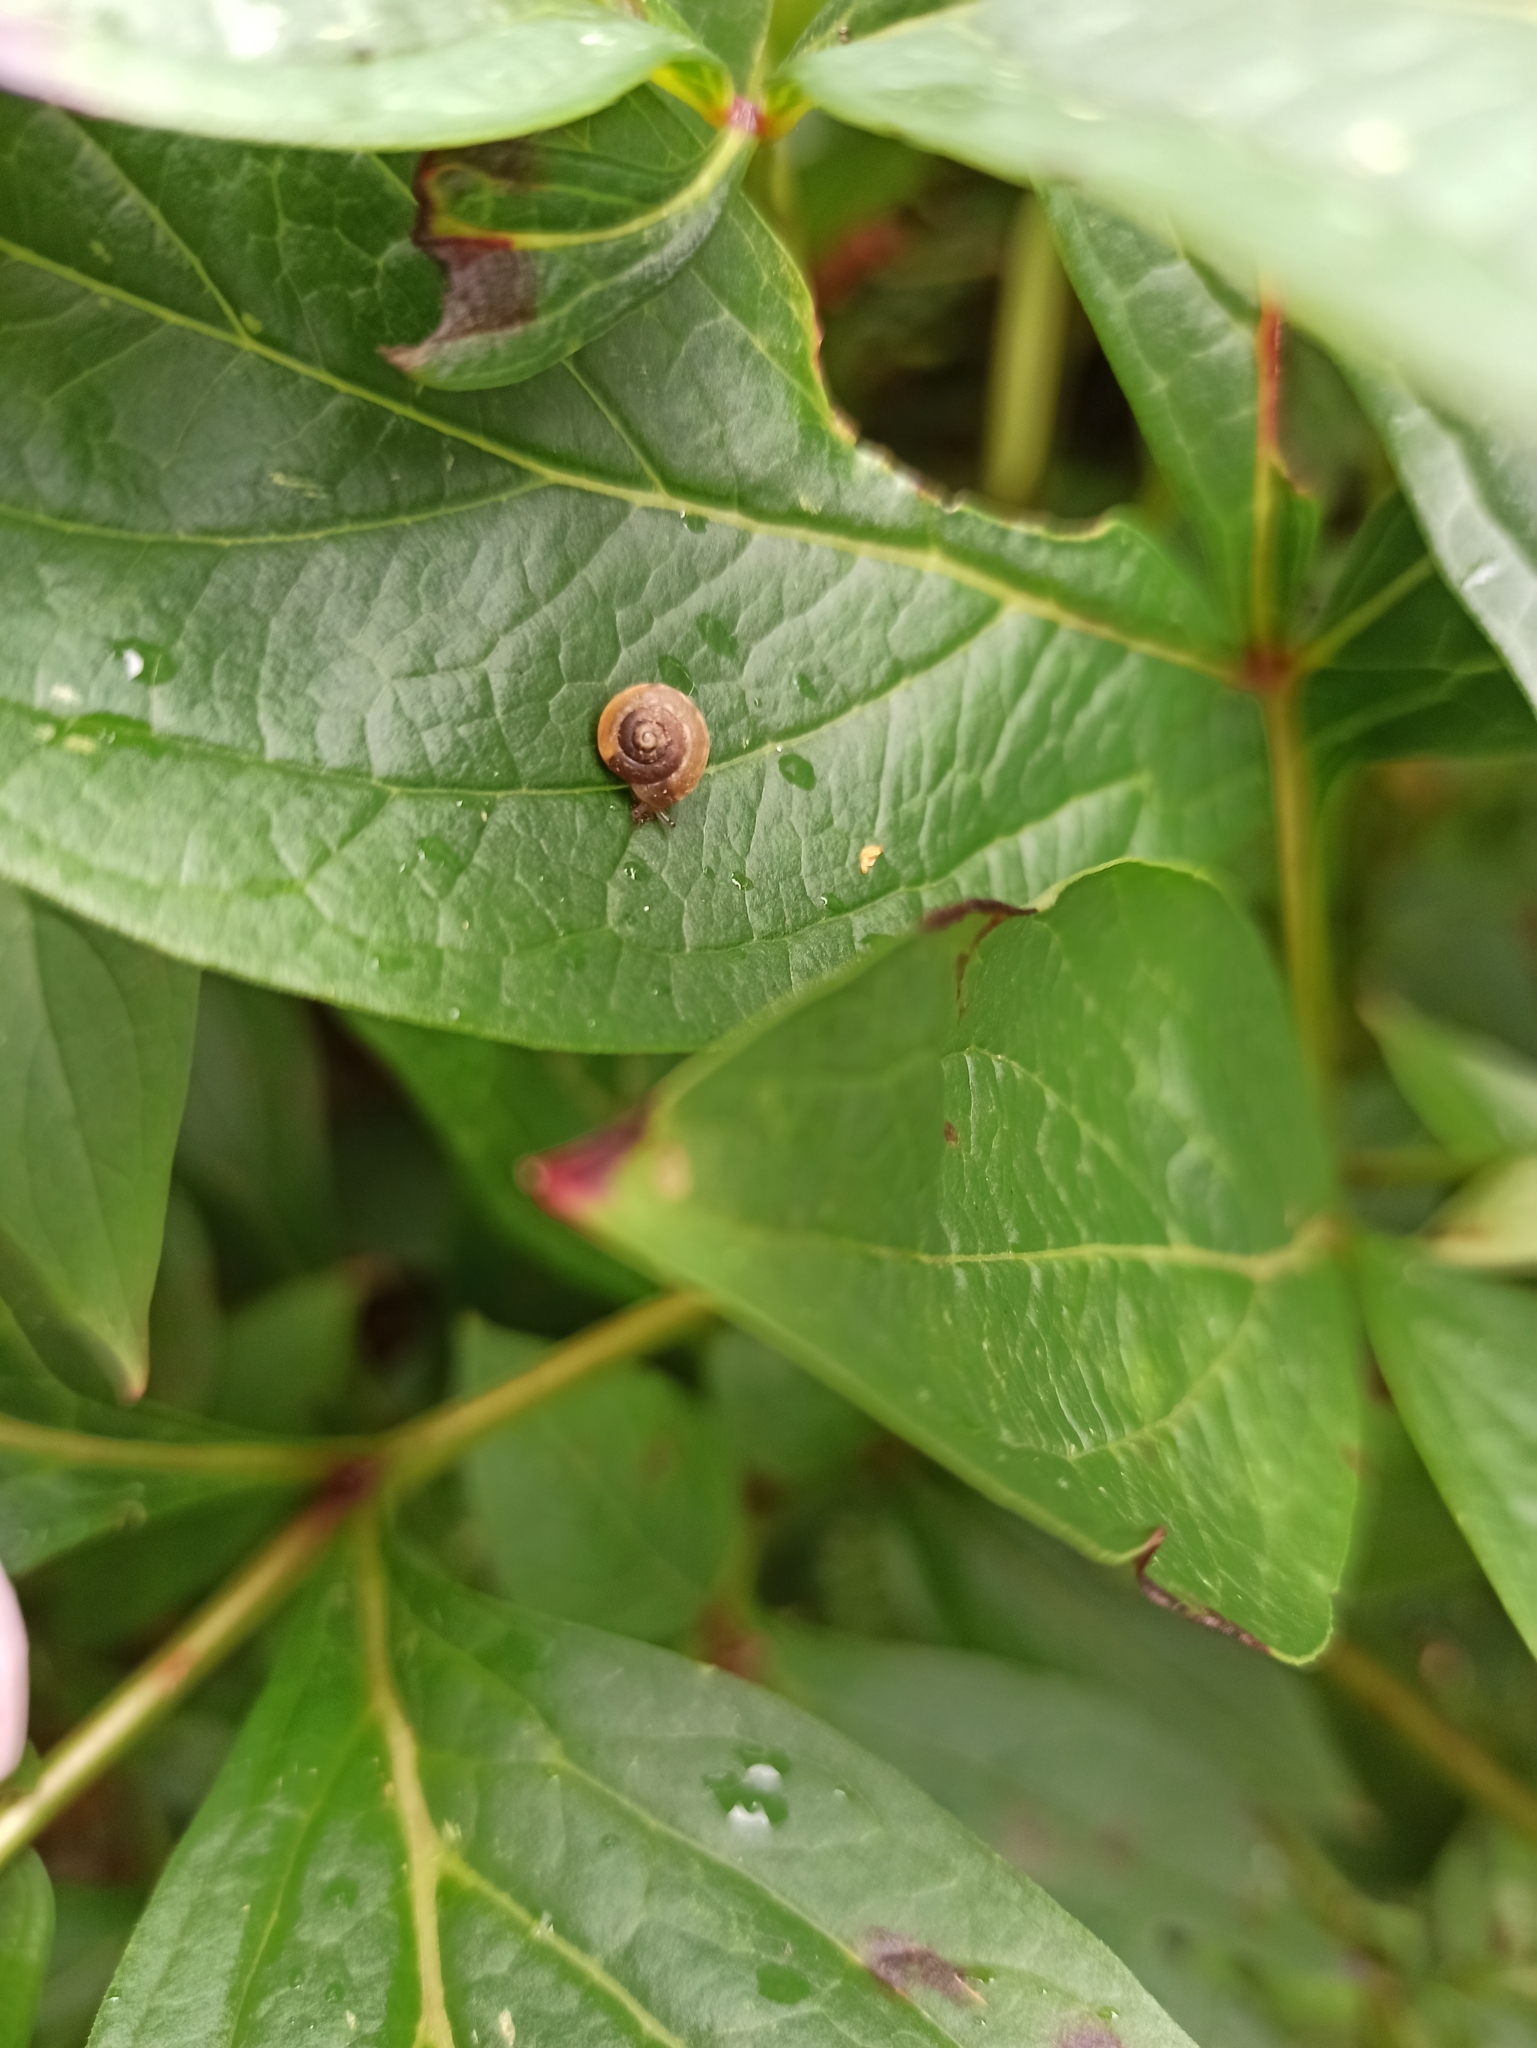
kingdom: Animalia
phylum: Mollusca
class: Gastropoda
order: Stylommatophora
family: Hygromiidae
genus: Hygromia
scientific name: Hygromia cinctella
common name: Girdled snail
